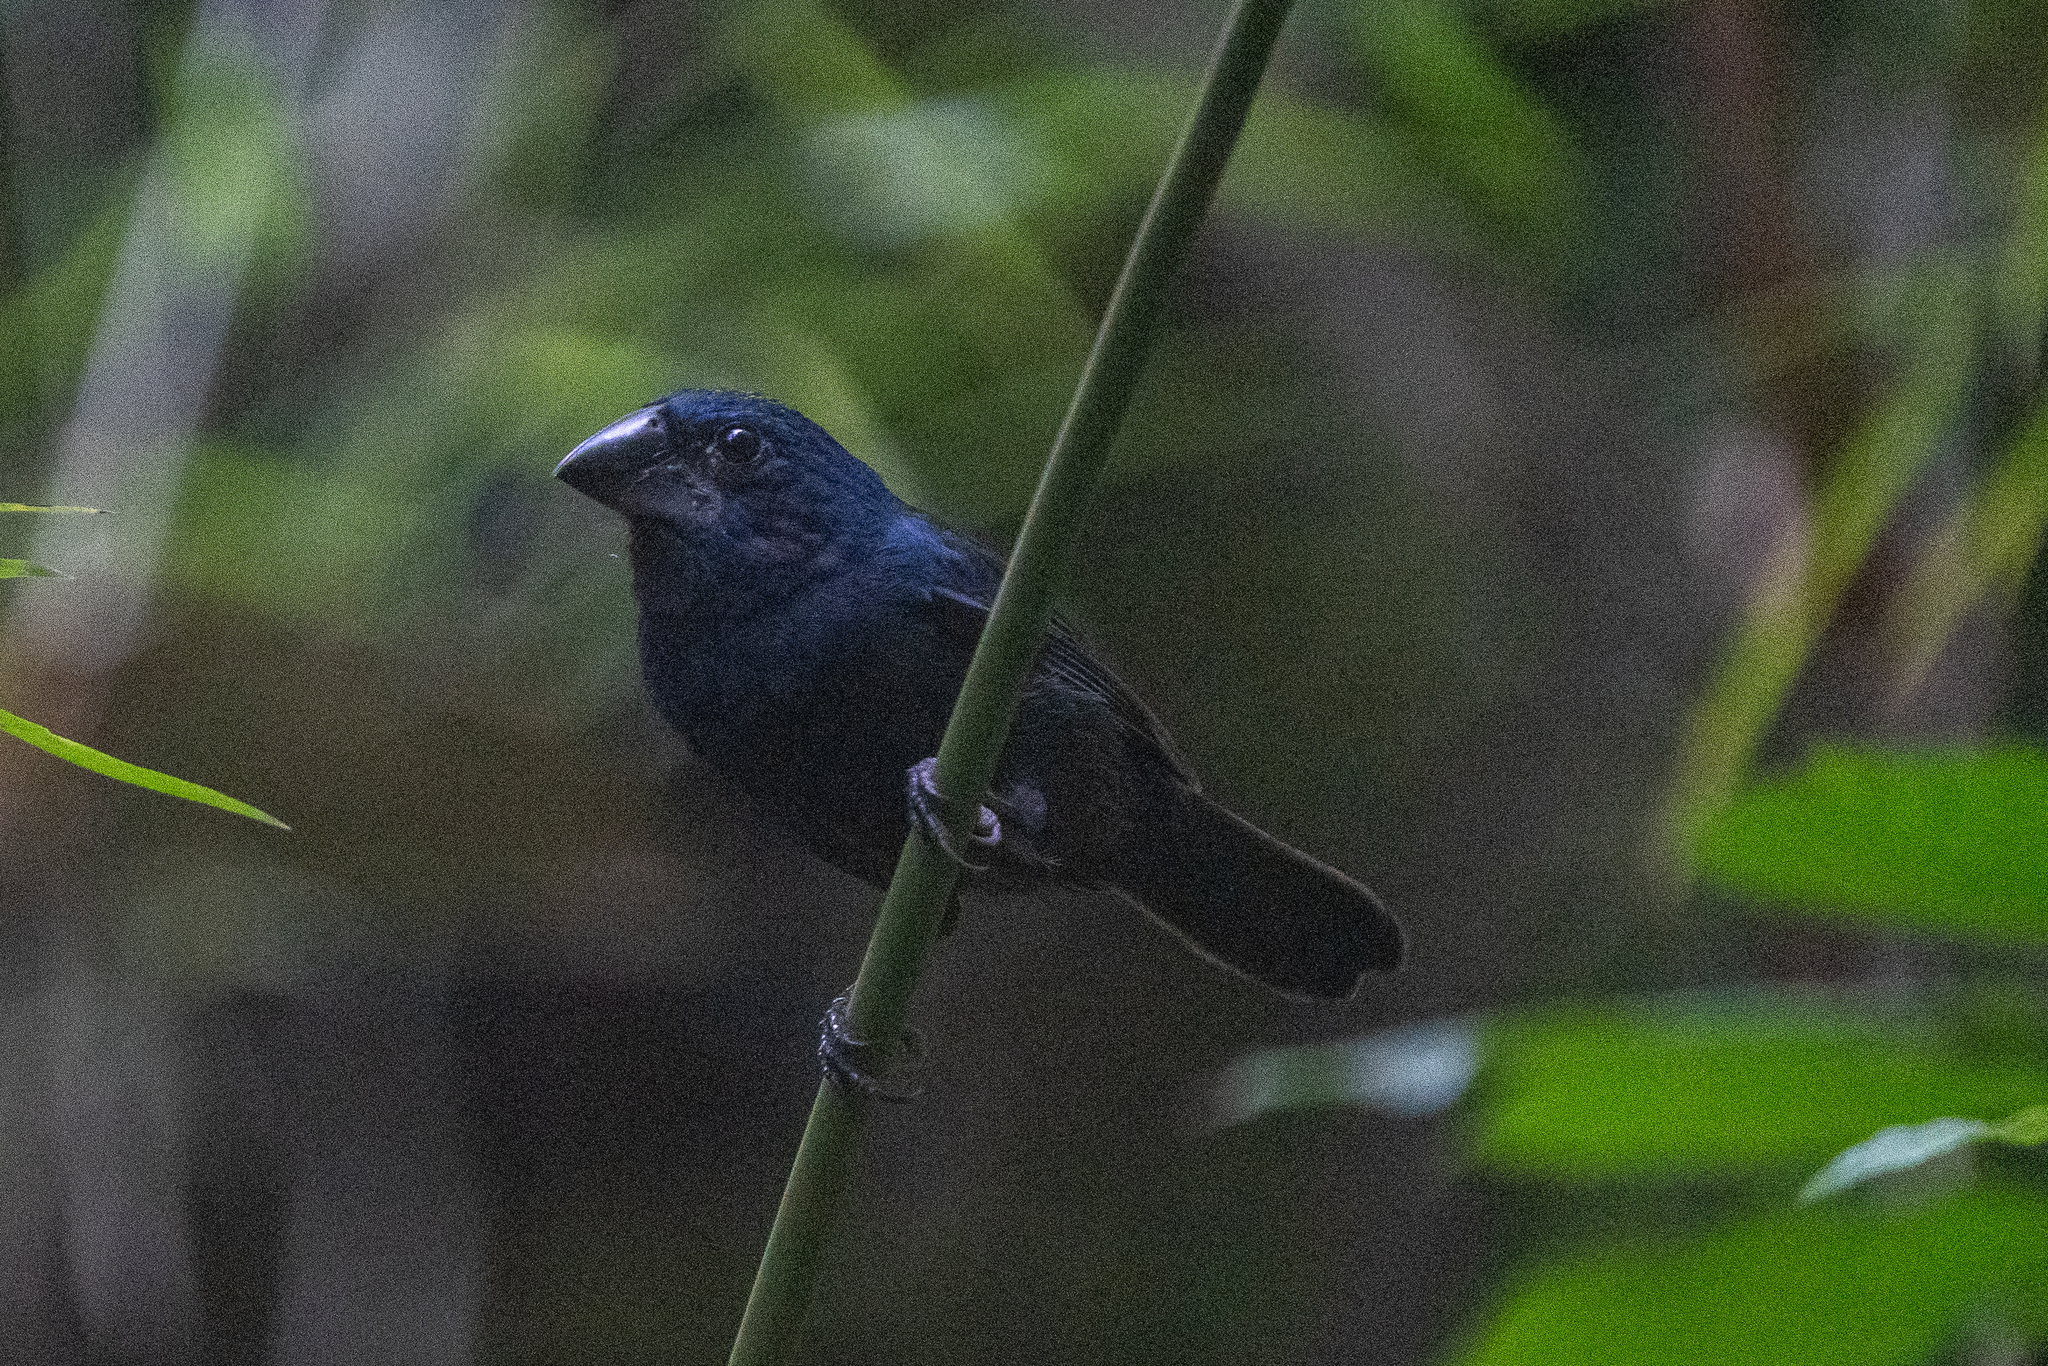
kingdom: Animalia
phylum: Chordata
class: Aves
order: Passeriformes
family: Cardinalidae
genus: Cyanocompsa
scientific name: Cyanocompsa cyanoides
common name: Blue-black grosbeak
